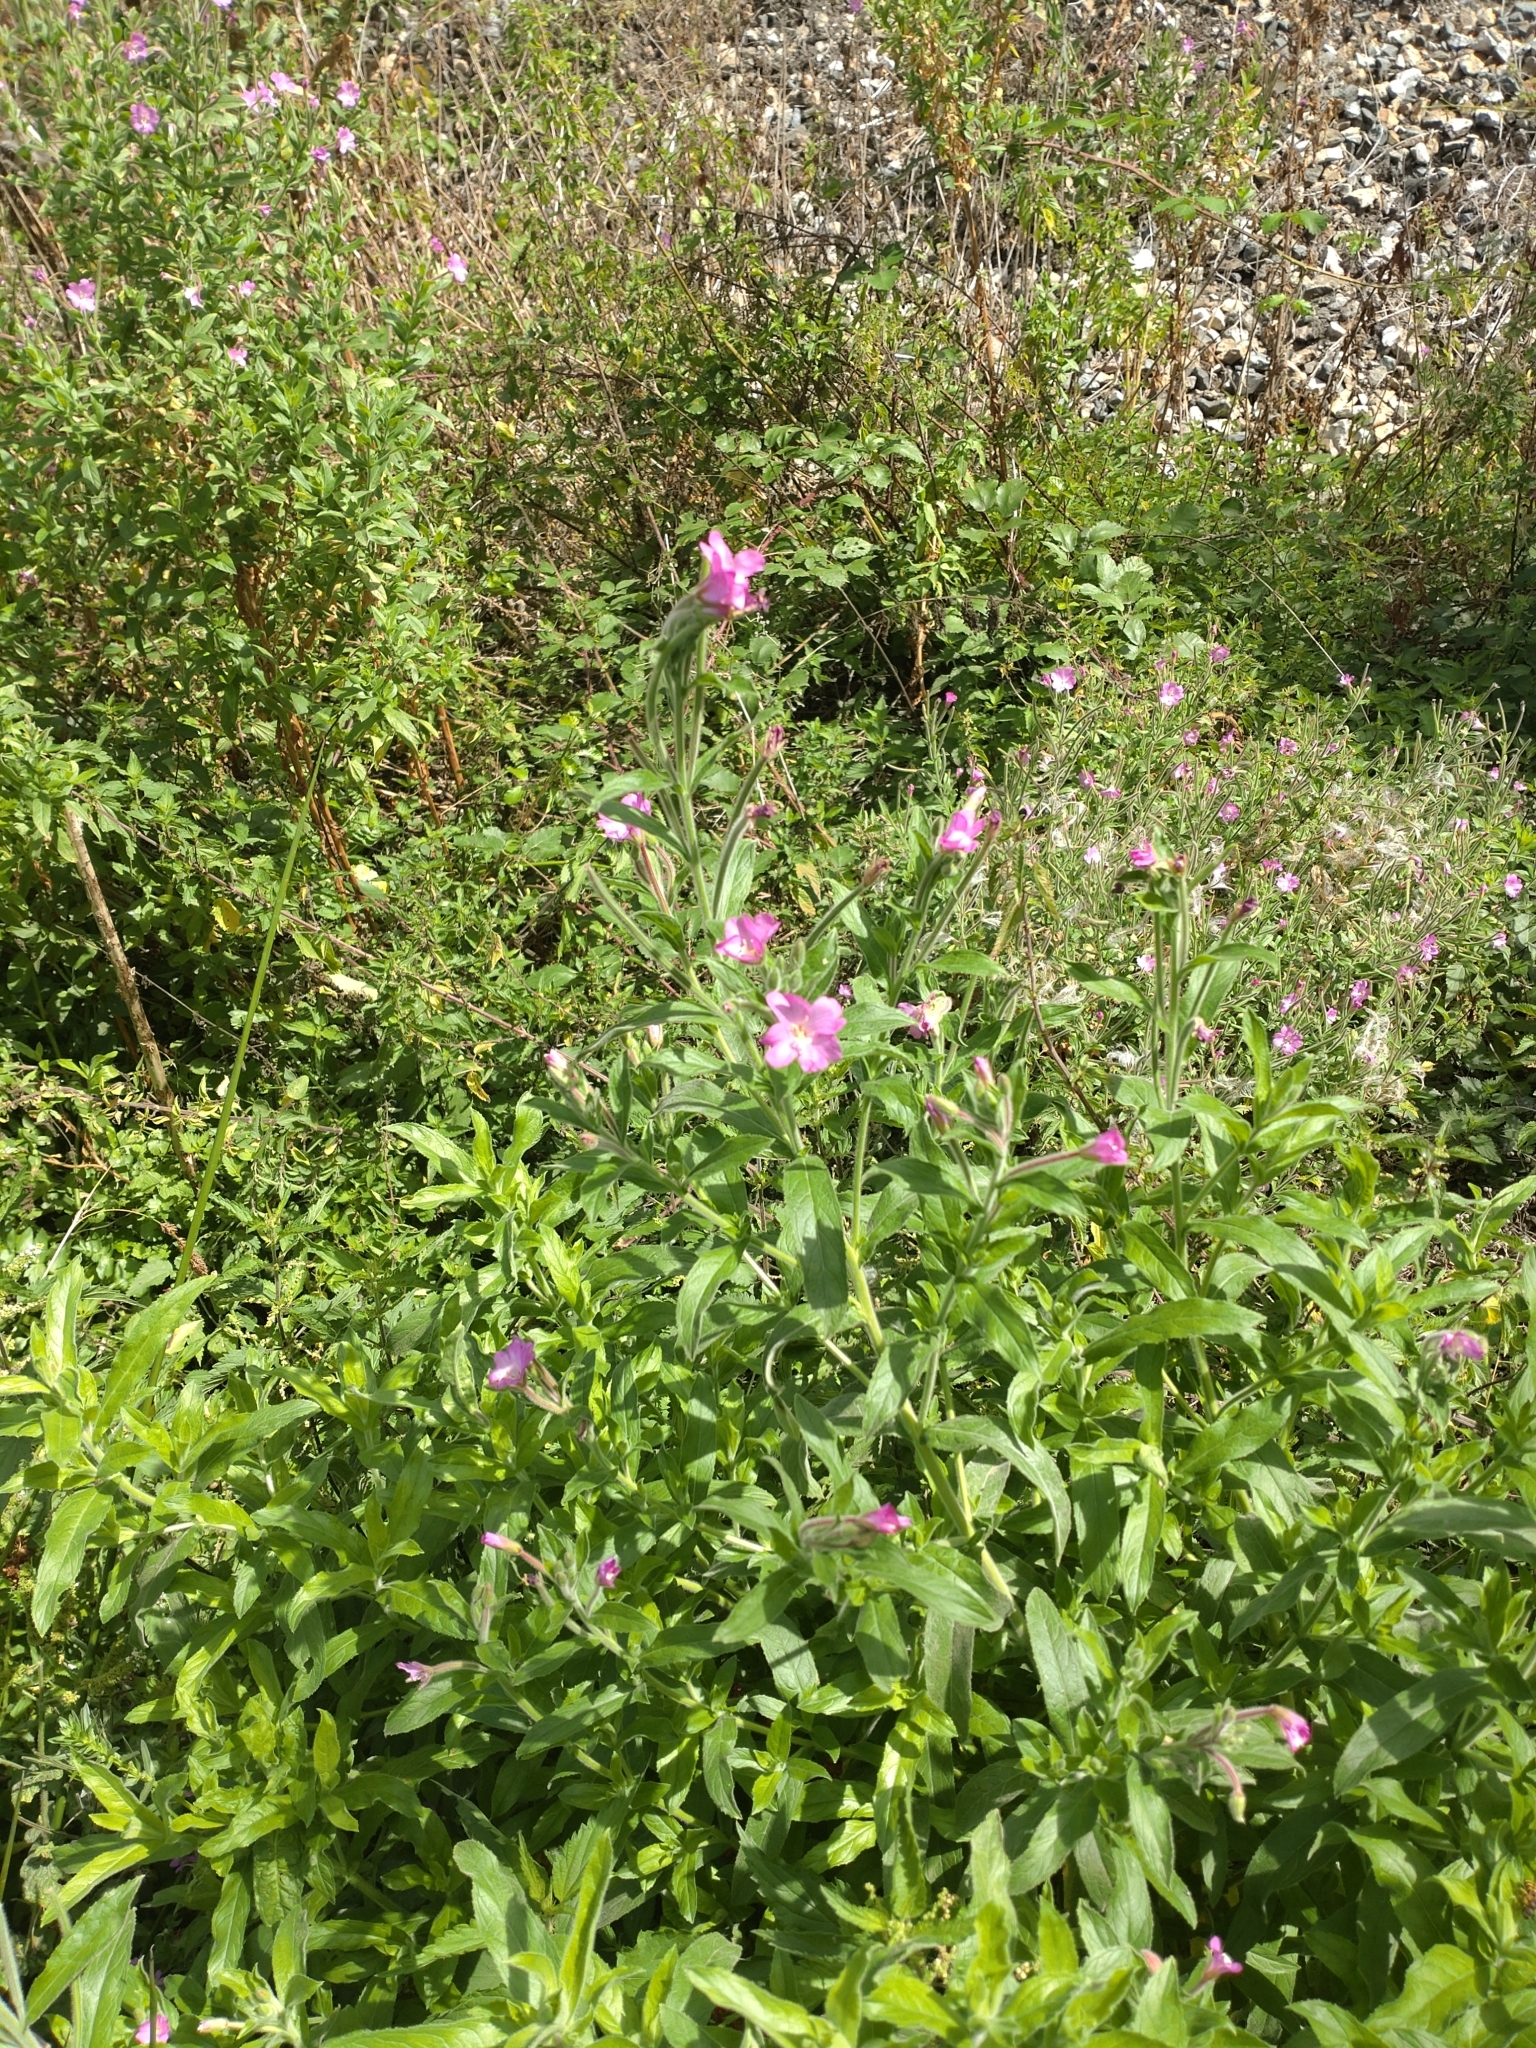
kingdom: Plantae
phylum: Tracheophyta
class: Magnoliopsida
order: Myrtales
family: Onagraceae
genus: Epilobium
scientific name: Epilobium hirsutum
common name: Great willowherb
